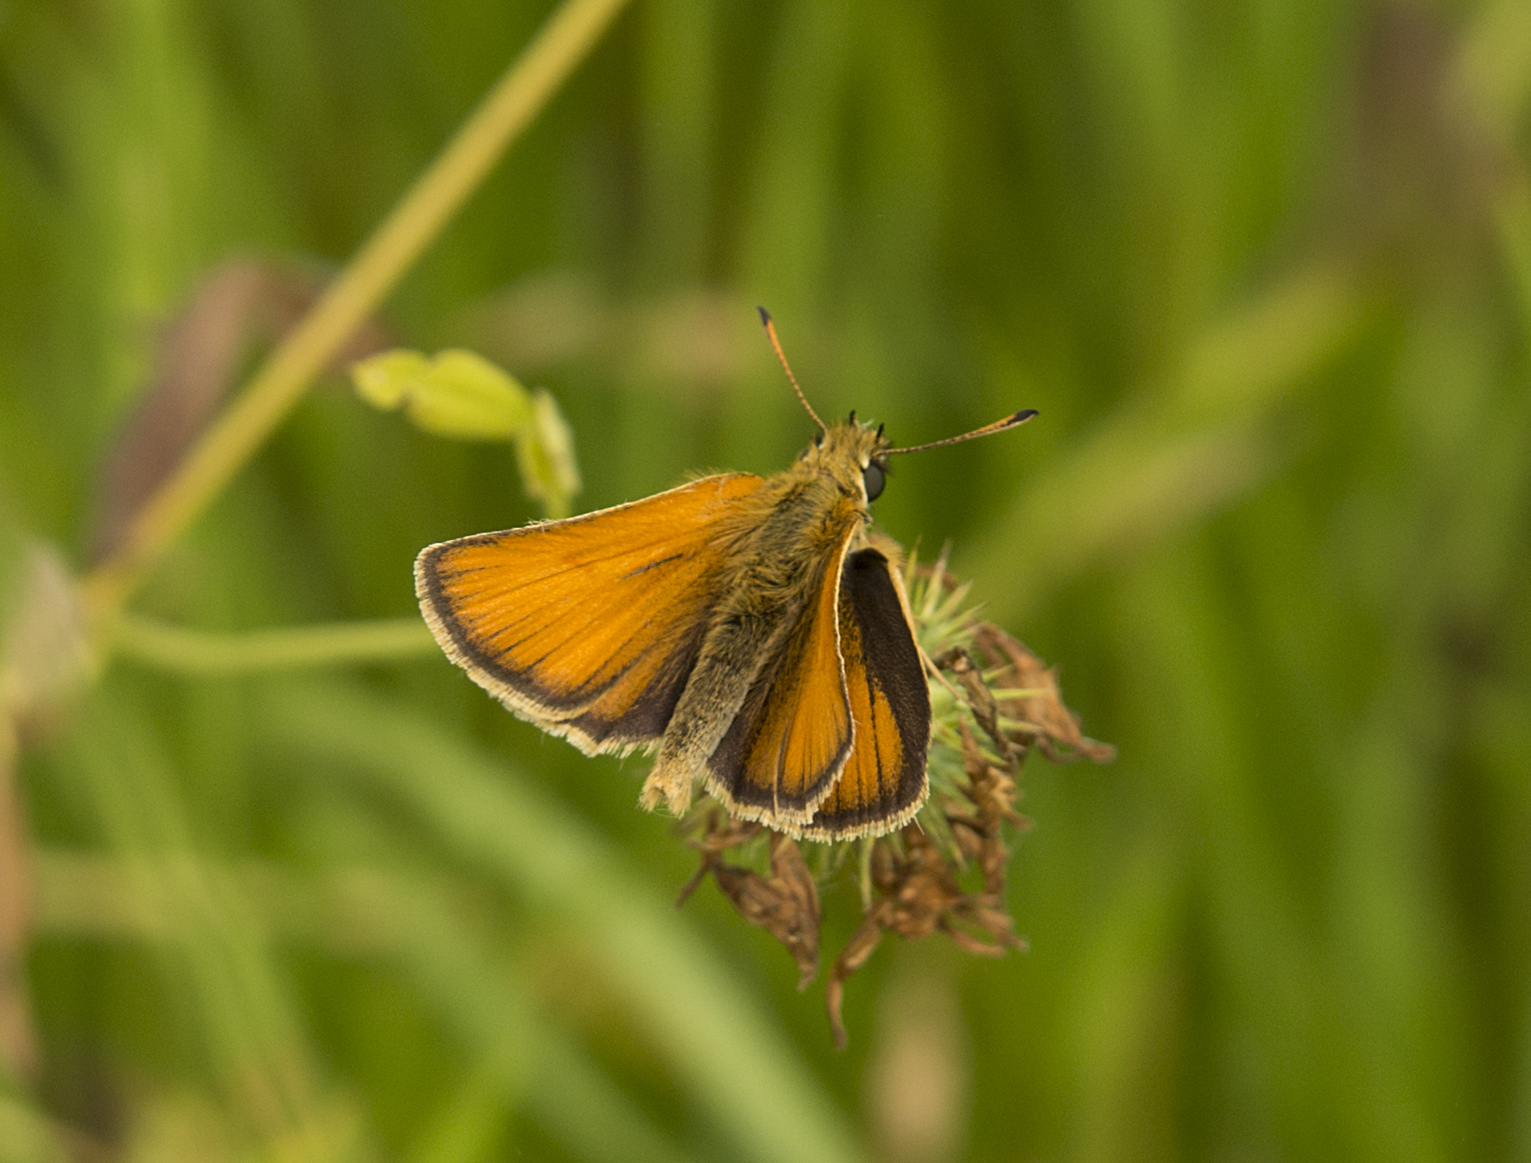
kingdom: Animalia
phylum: Arthropoda
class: Insecta
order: Lepidoptera
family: Hesperiidae
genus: Thymelicus
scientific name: Thymelicus lineola
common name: Essex skipper
